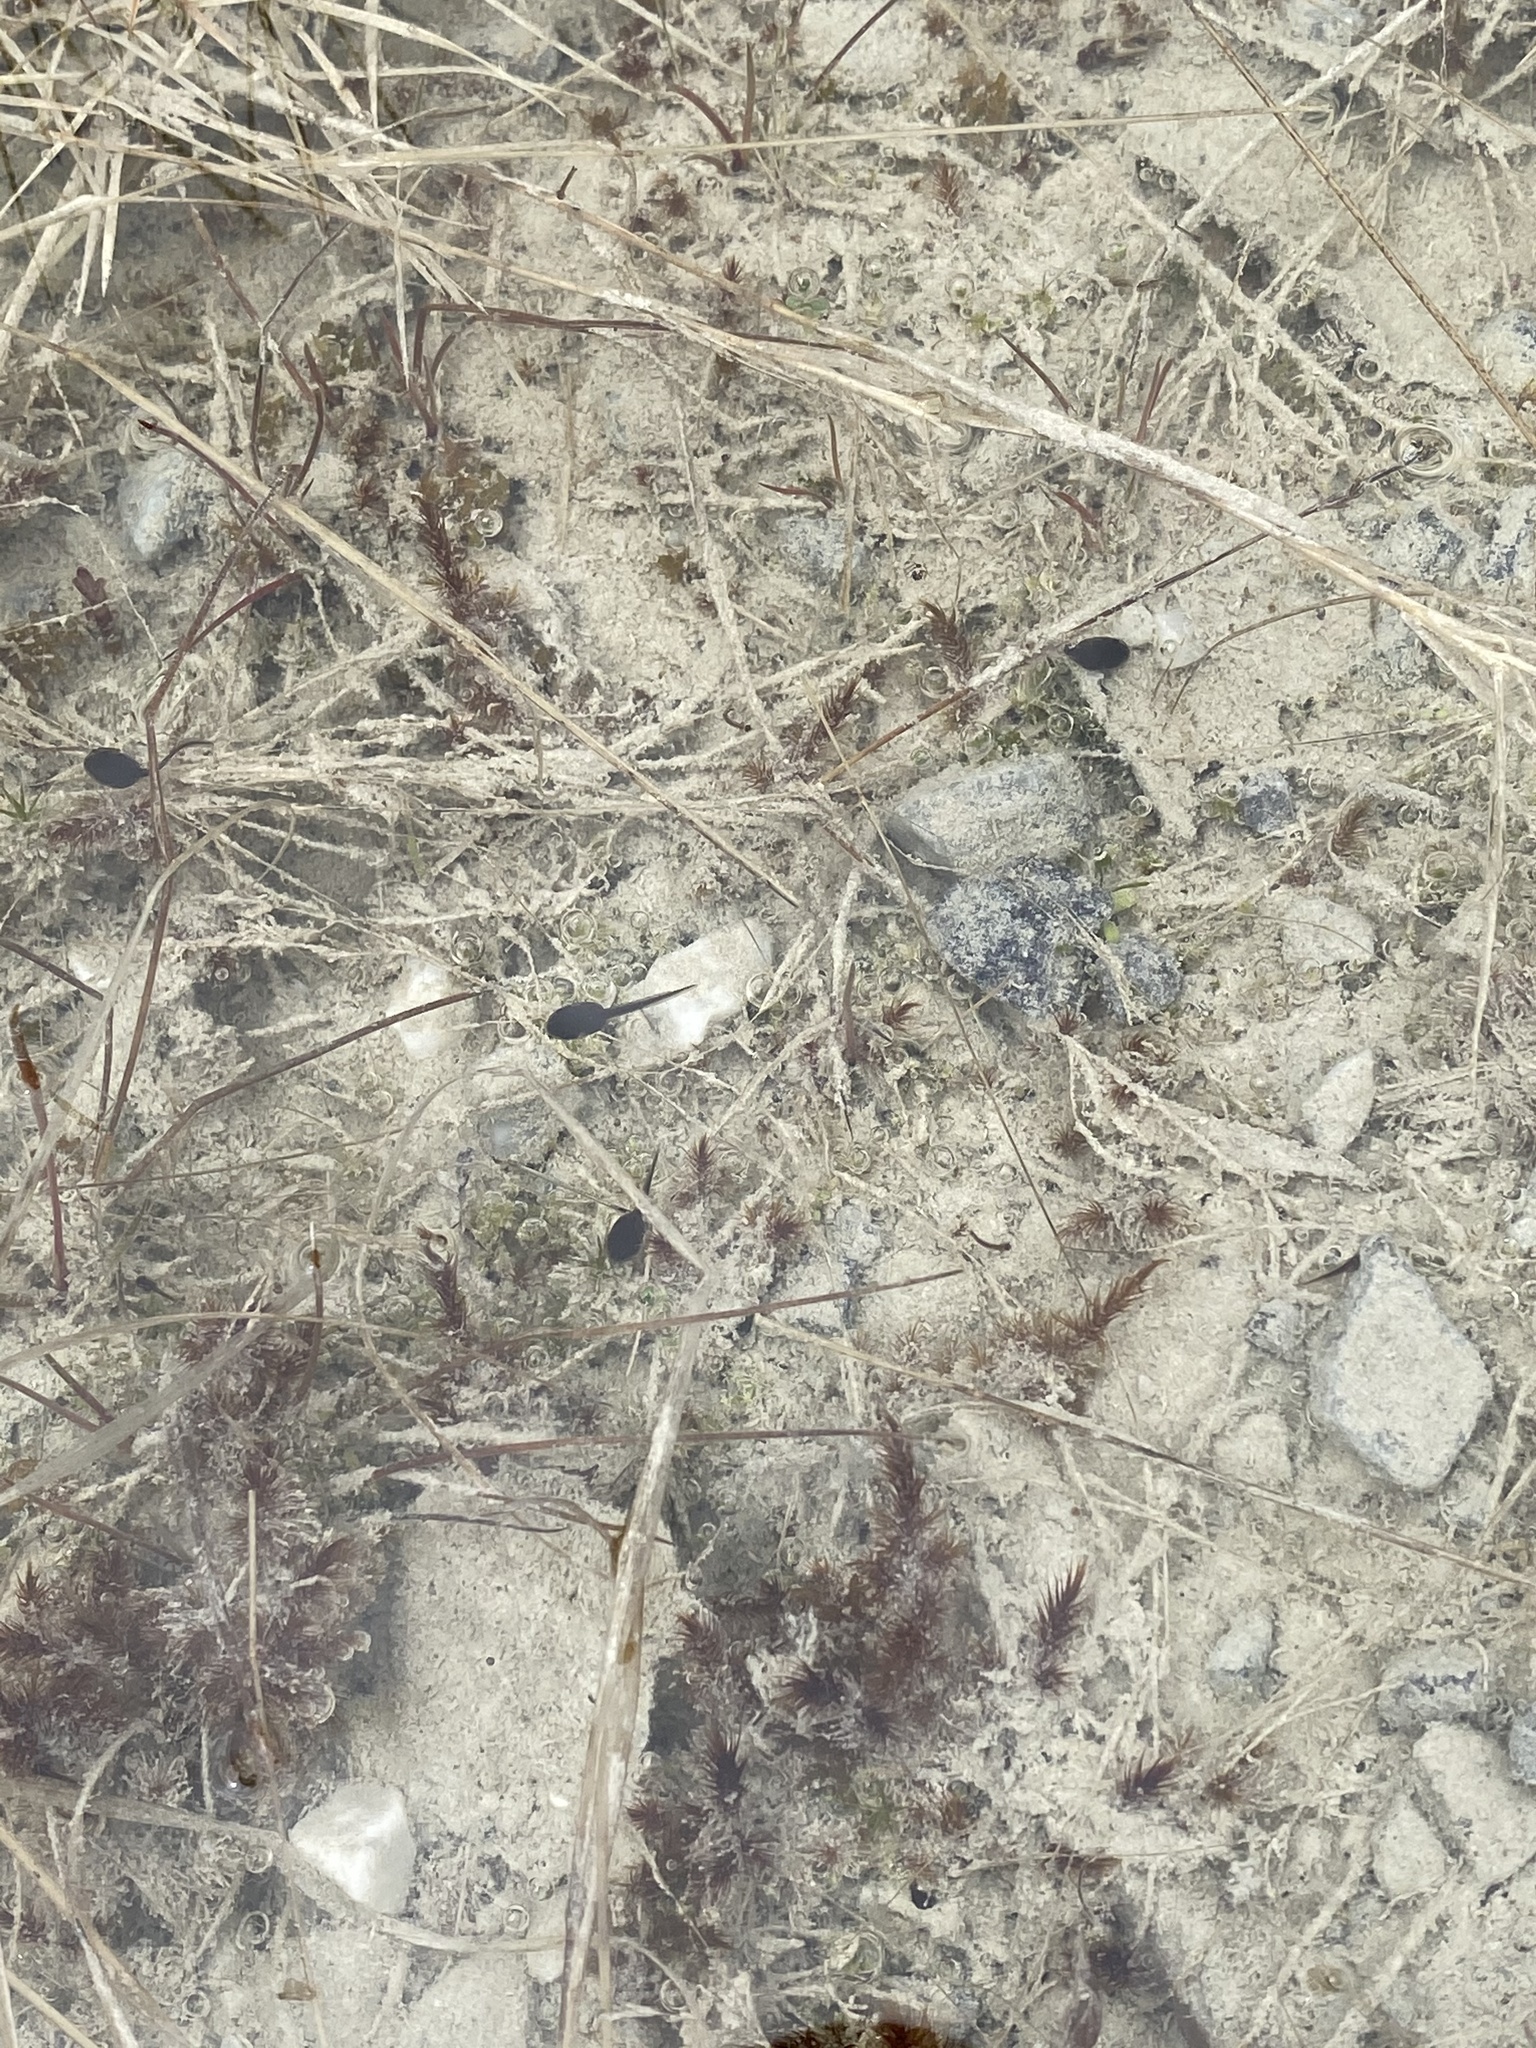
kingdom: Animalia
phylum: Chordata
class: Amphibia
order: Anura
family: Bufonidae
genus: Anaxyrus
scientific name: Anaxyrus americanus
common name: American toad
